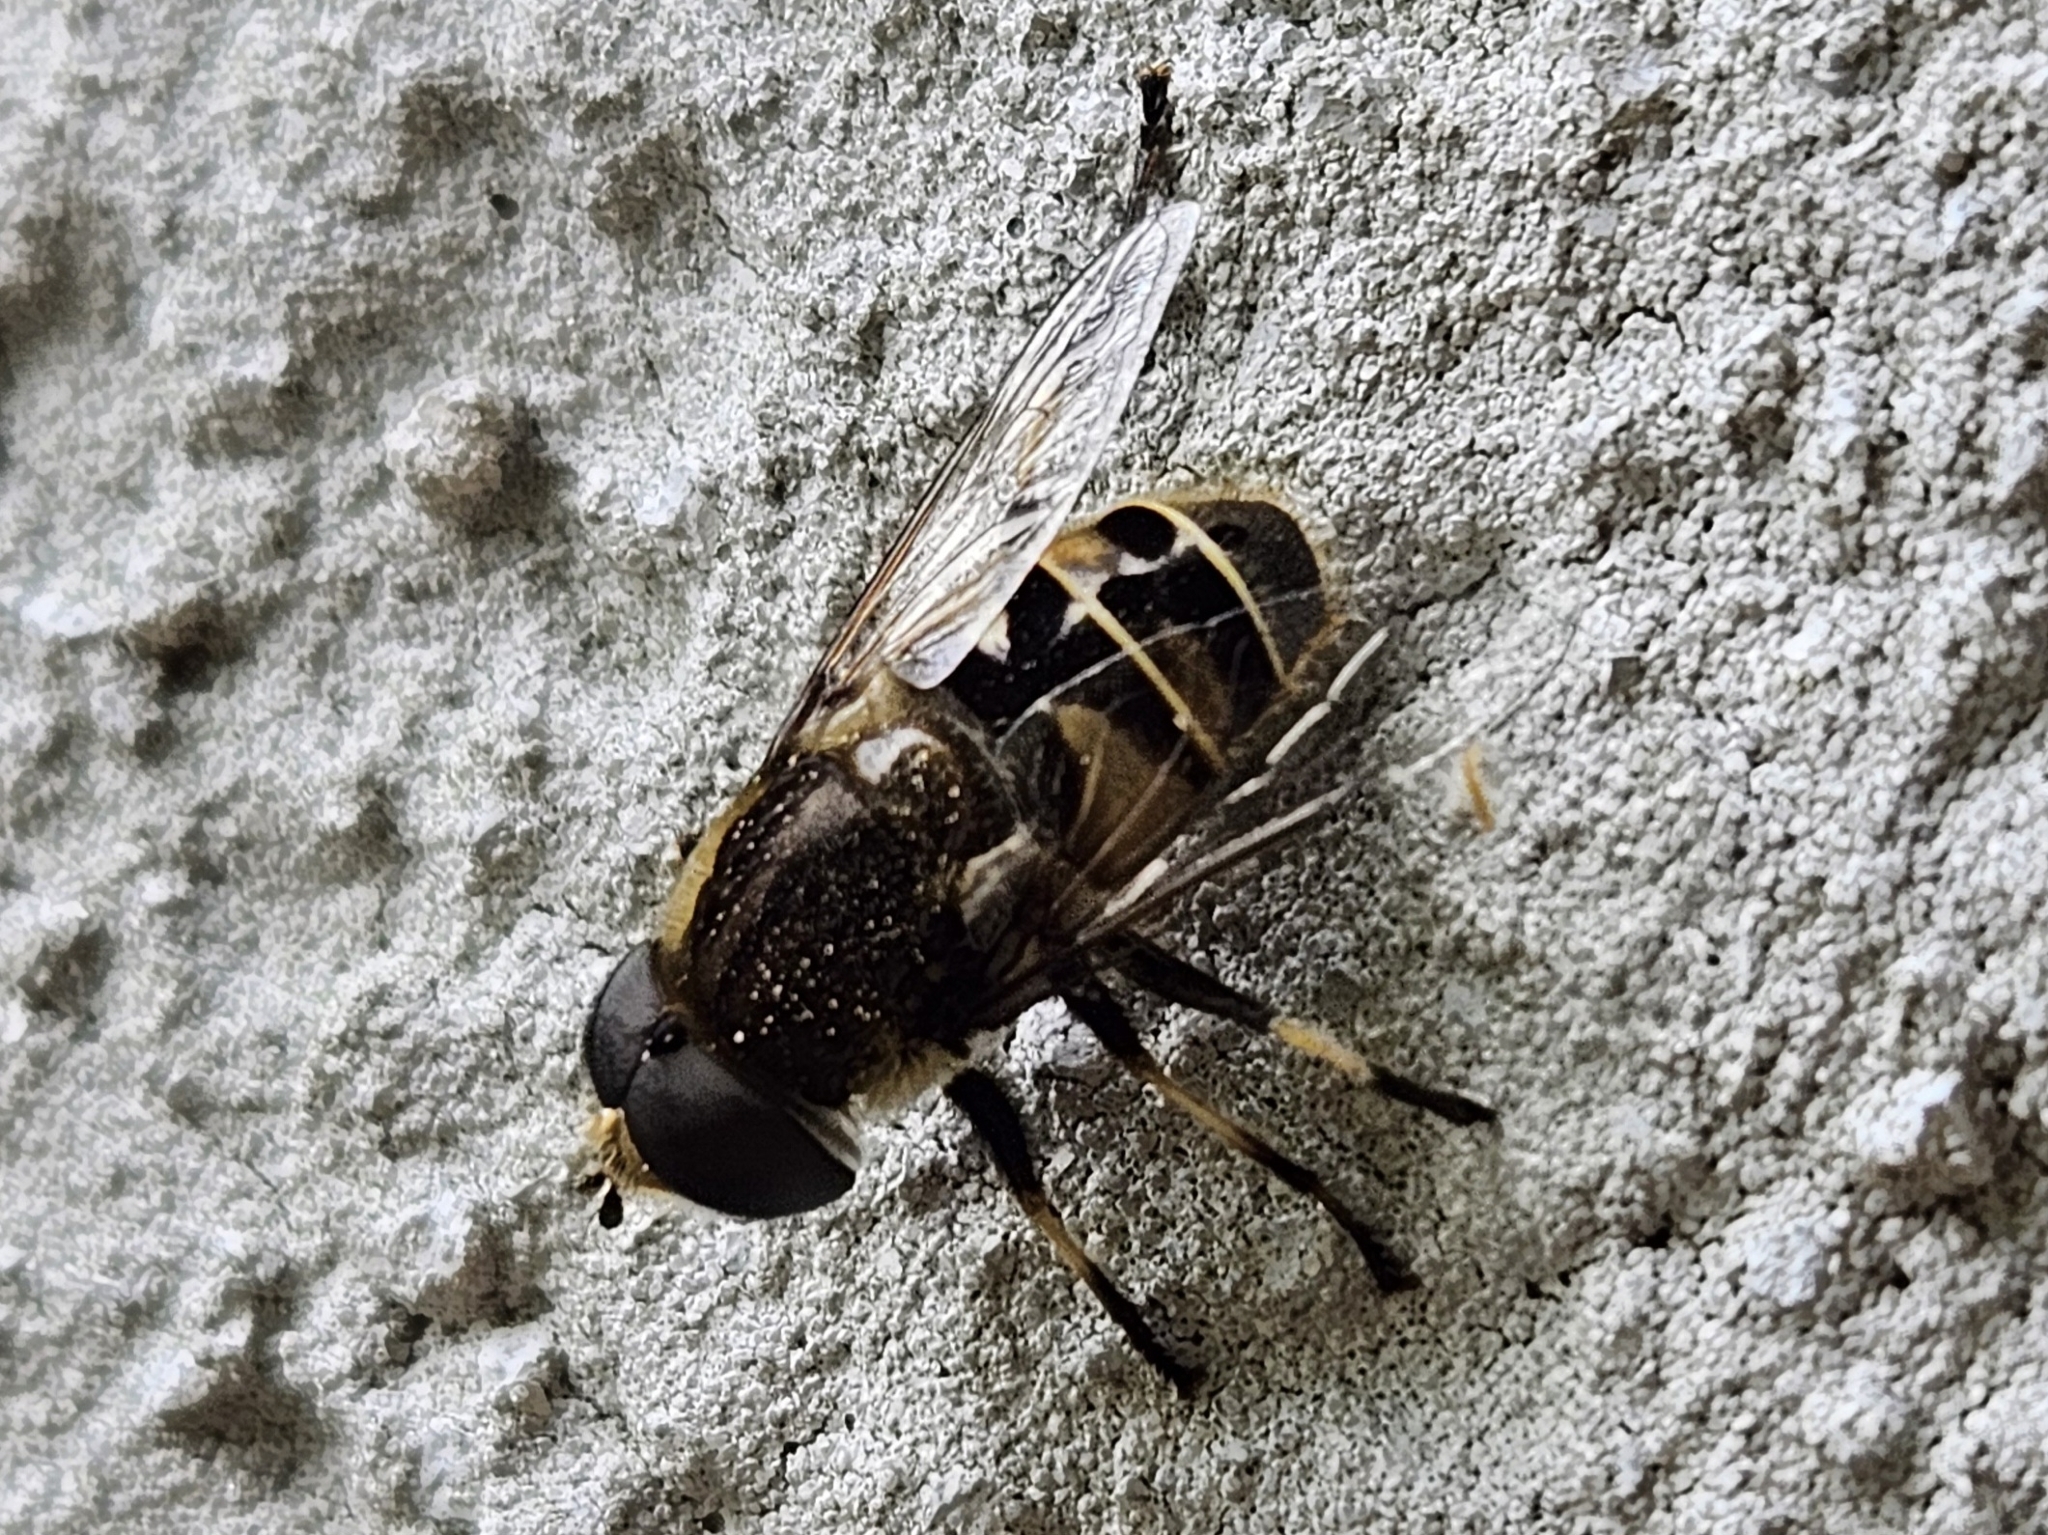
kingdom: Animalia
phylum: Arthropoda
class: Insecta
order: Diptera
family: Syrphidae
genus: Eristalis
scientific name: Eristalis dimidiata
